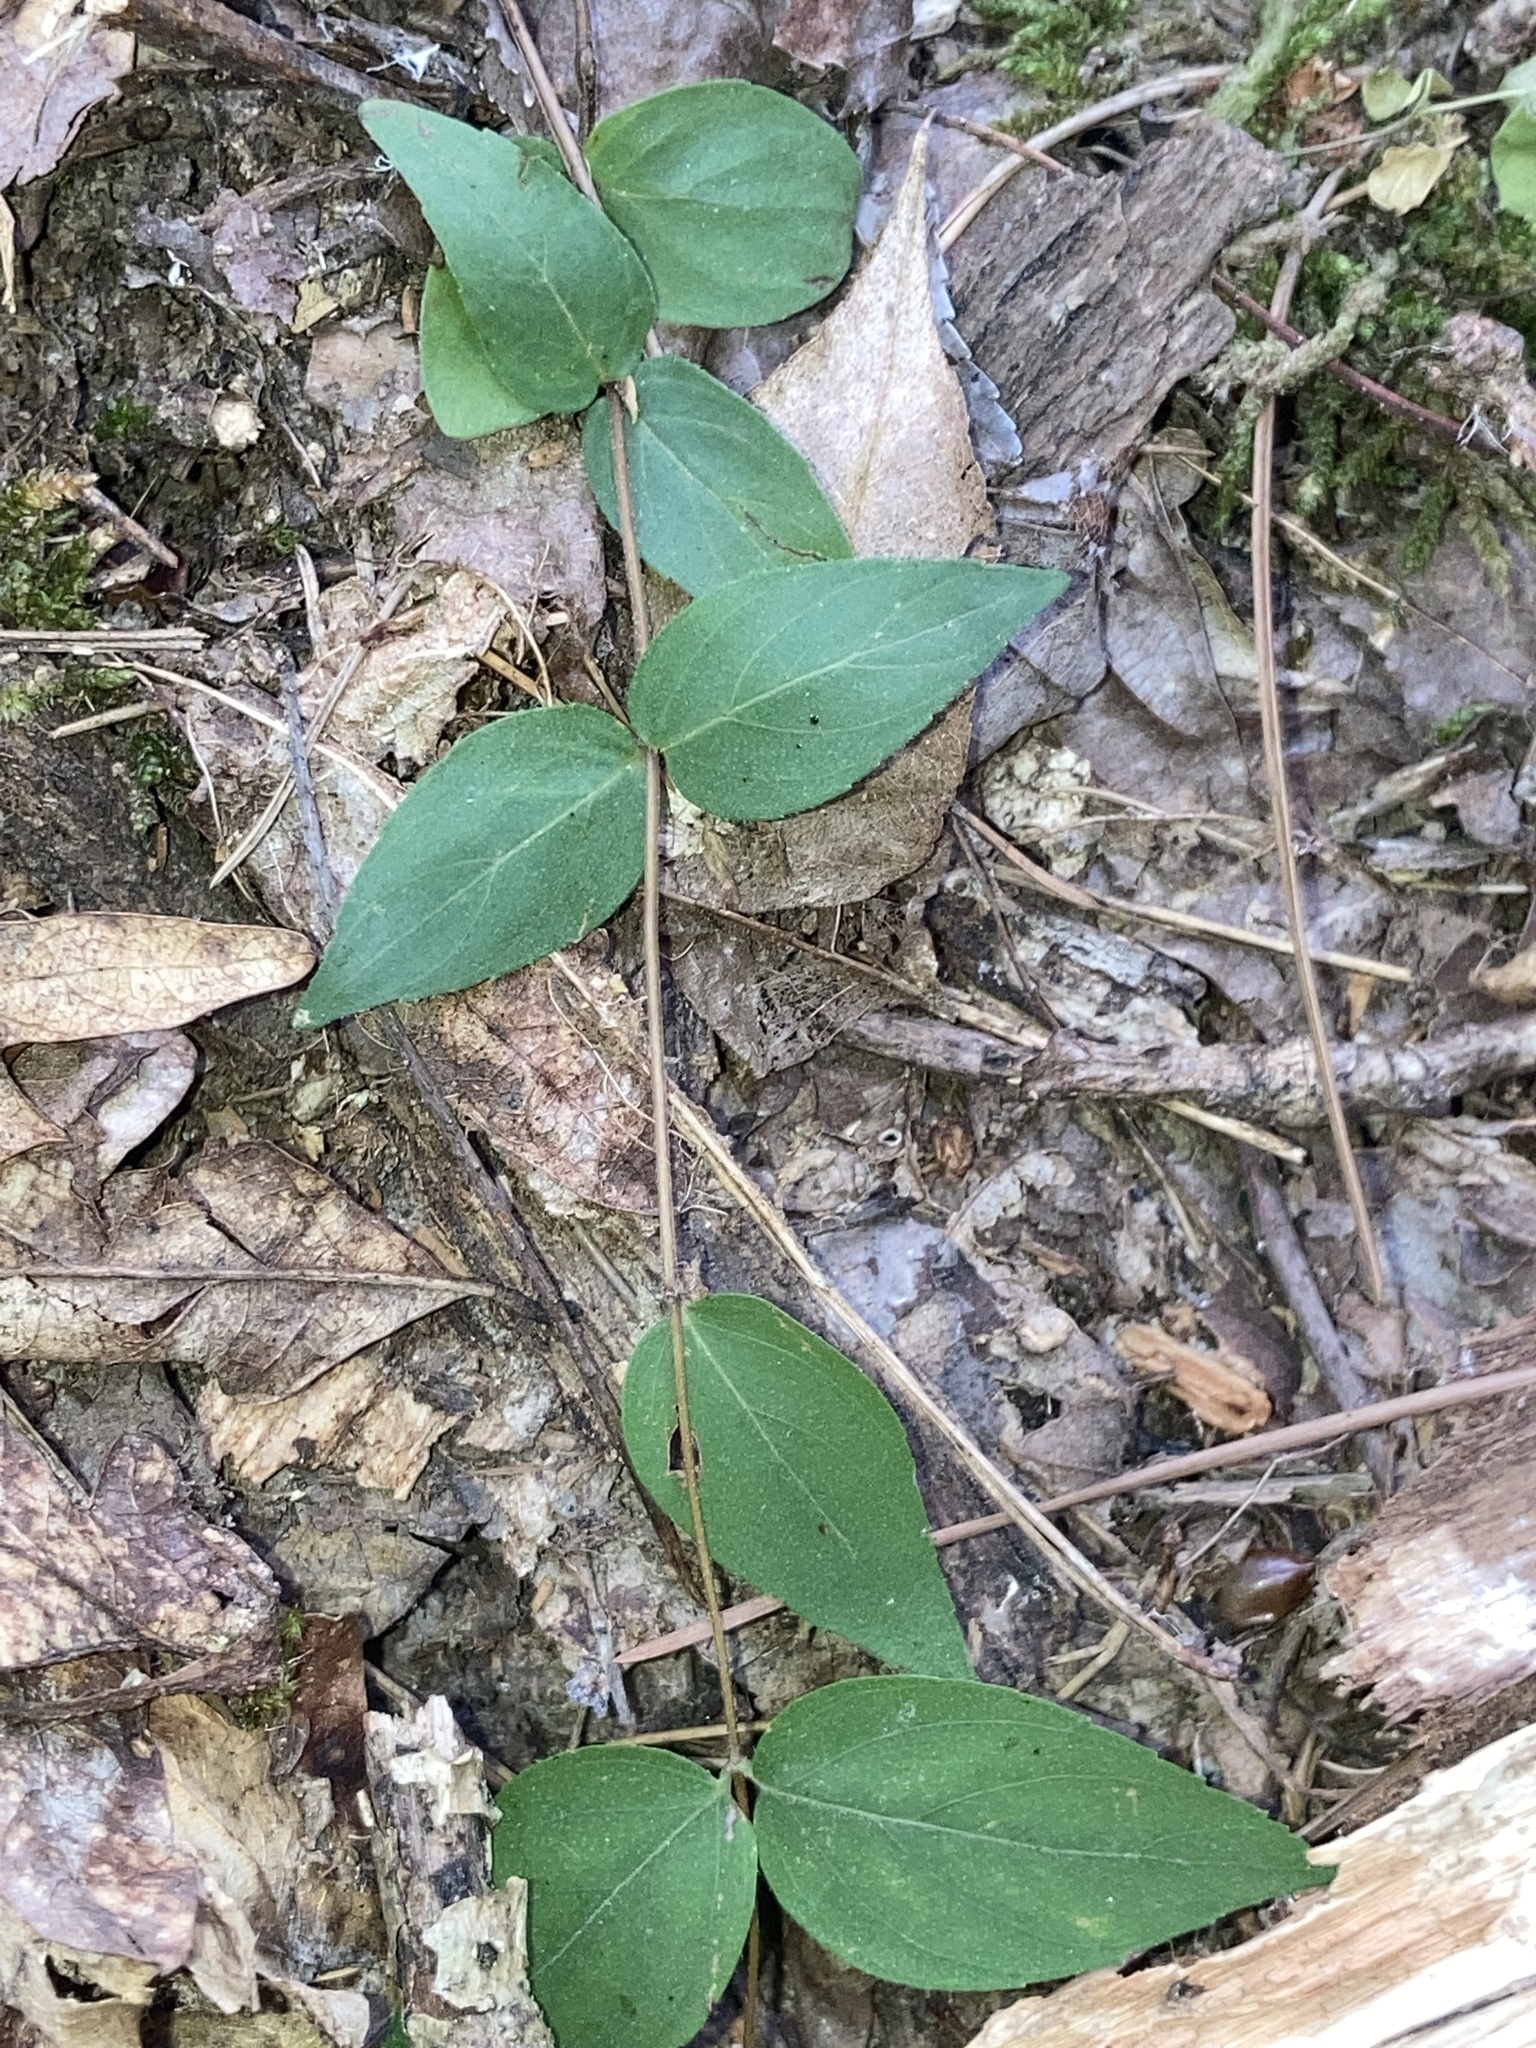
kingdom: Plantae
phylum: Tracheophyta
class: Magnoliopsida
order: Lamiales
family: Lamiaceae
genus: Cunila
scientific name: Cunila origanoides
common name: American dittany
